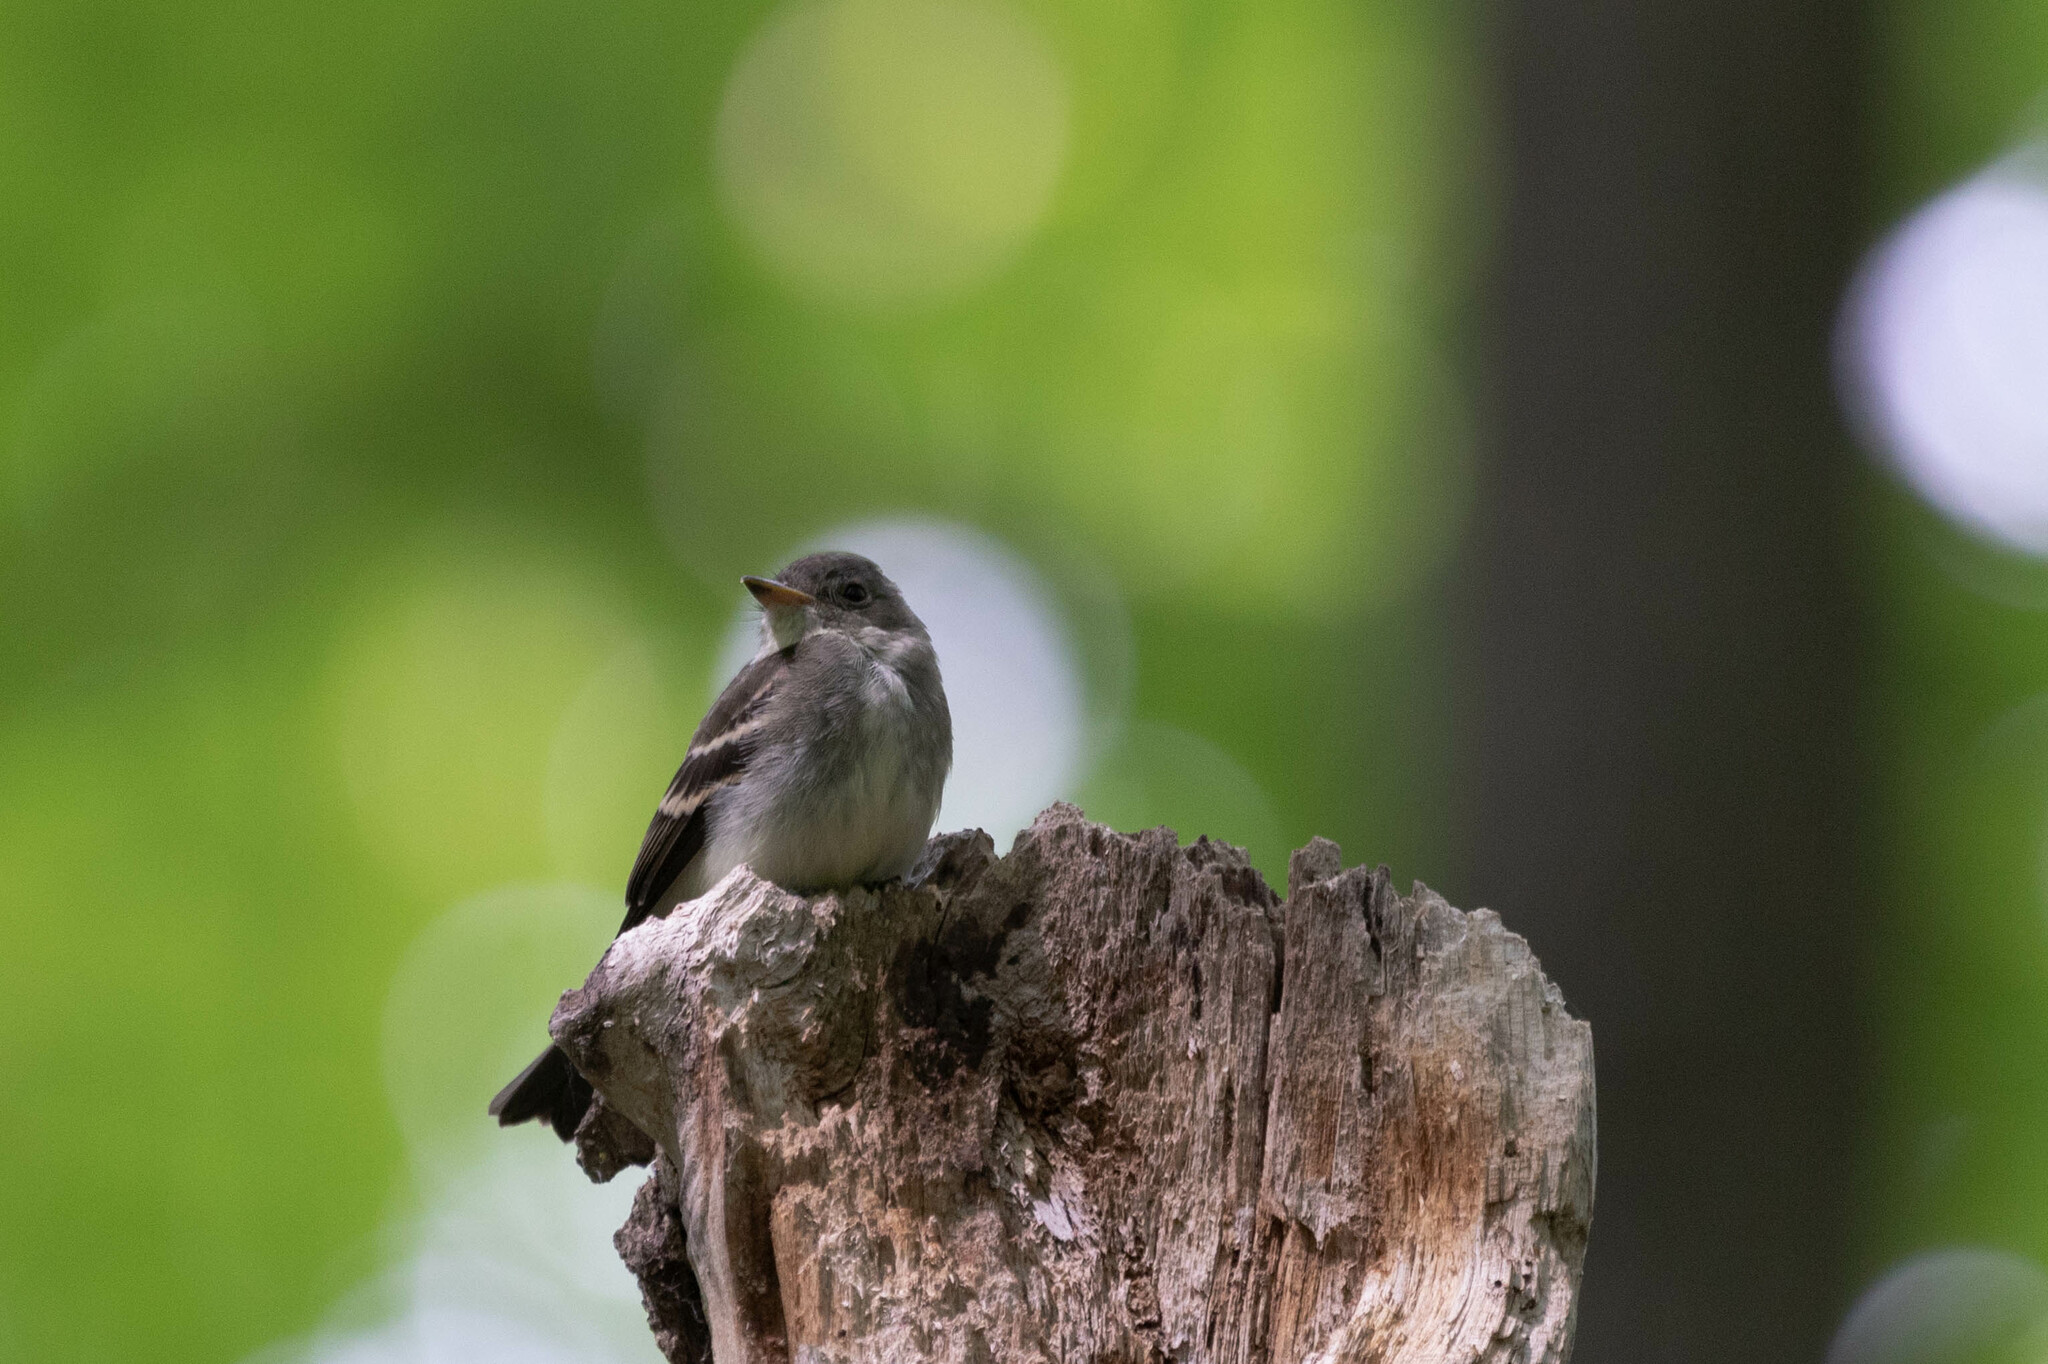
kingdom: Animalia
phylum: Chordata
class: Aves
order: Passeriformes
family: Tyrannidae
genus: Contopus
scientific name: Contopus virens
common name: Eastern wood-pewee
